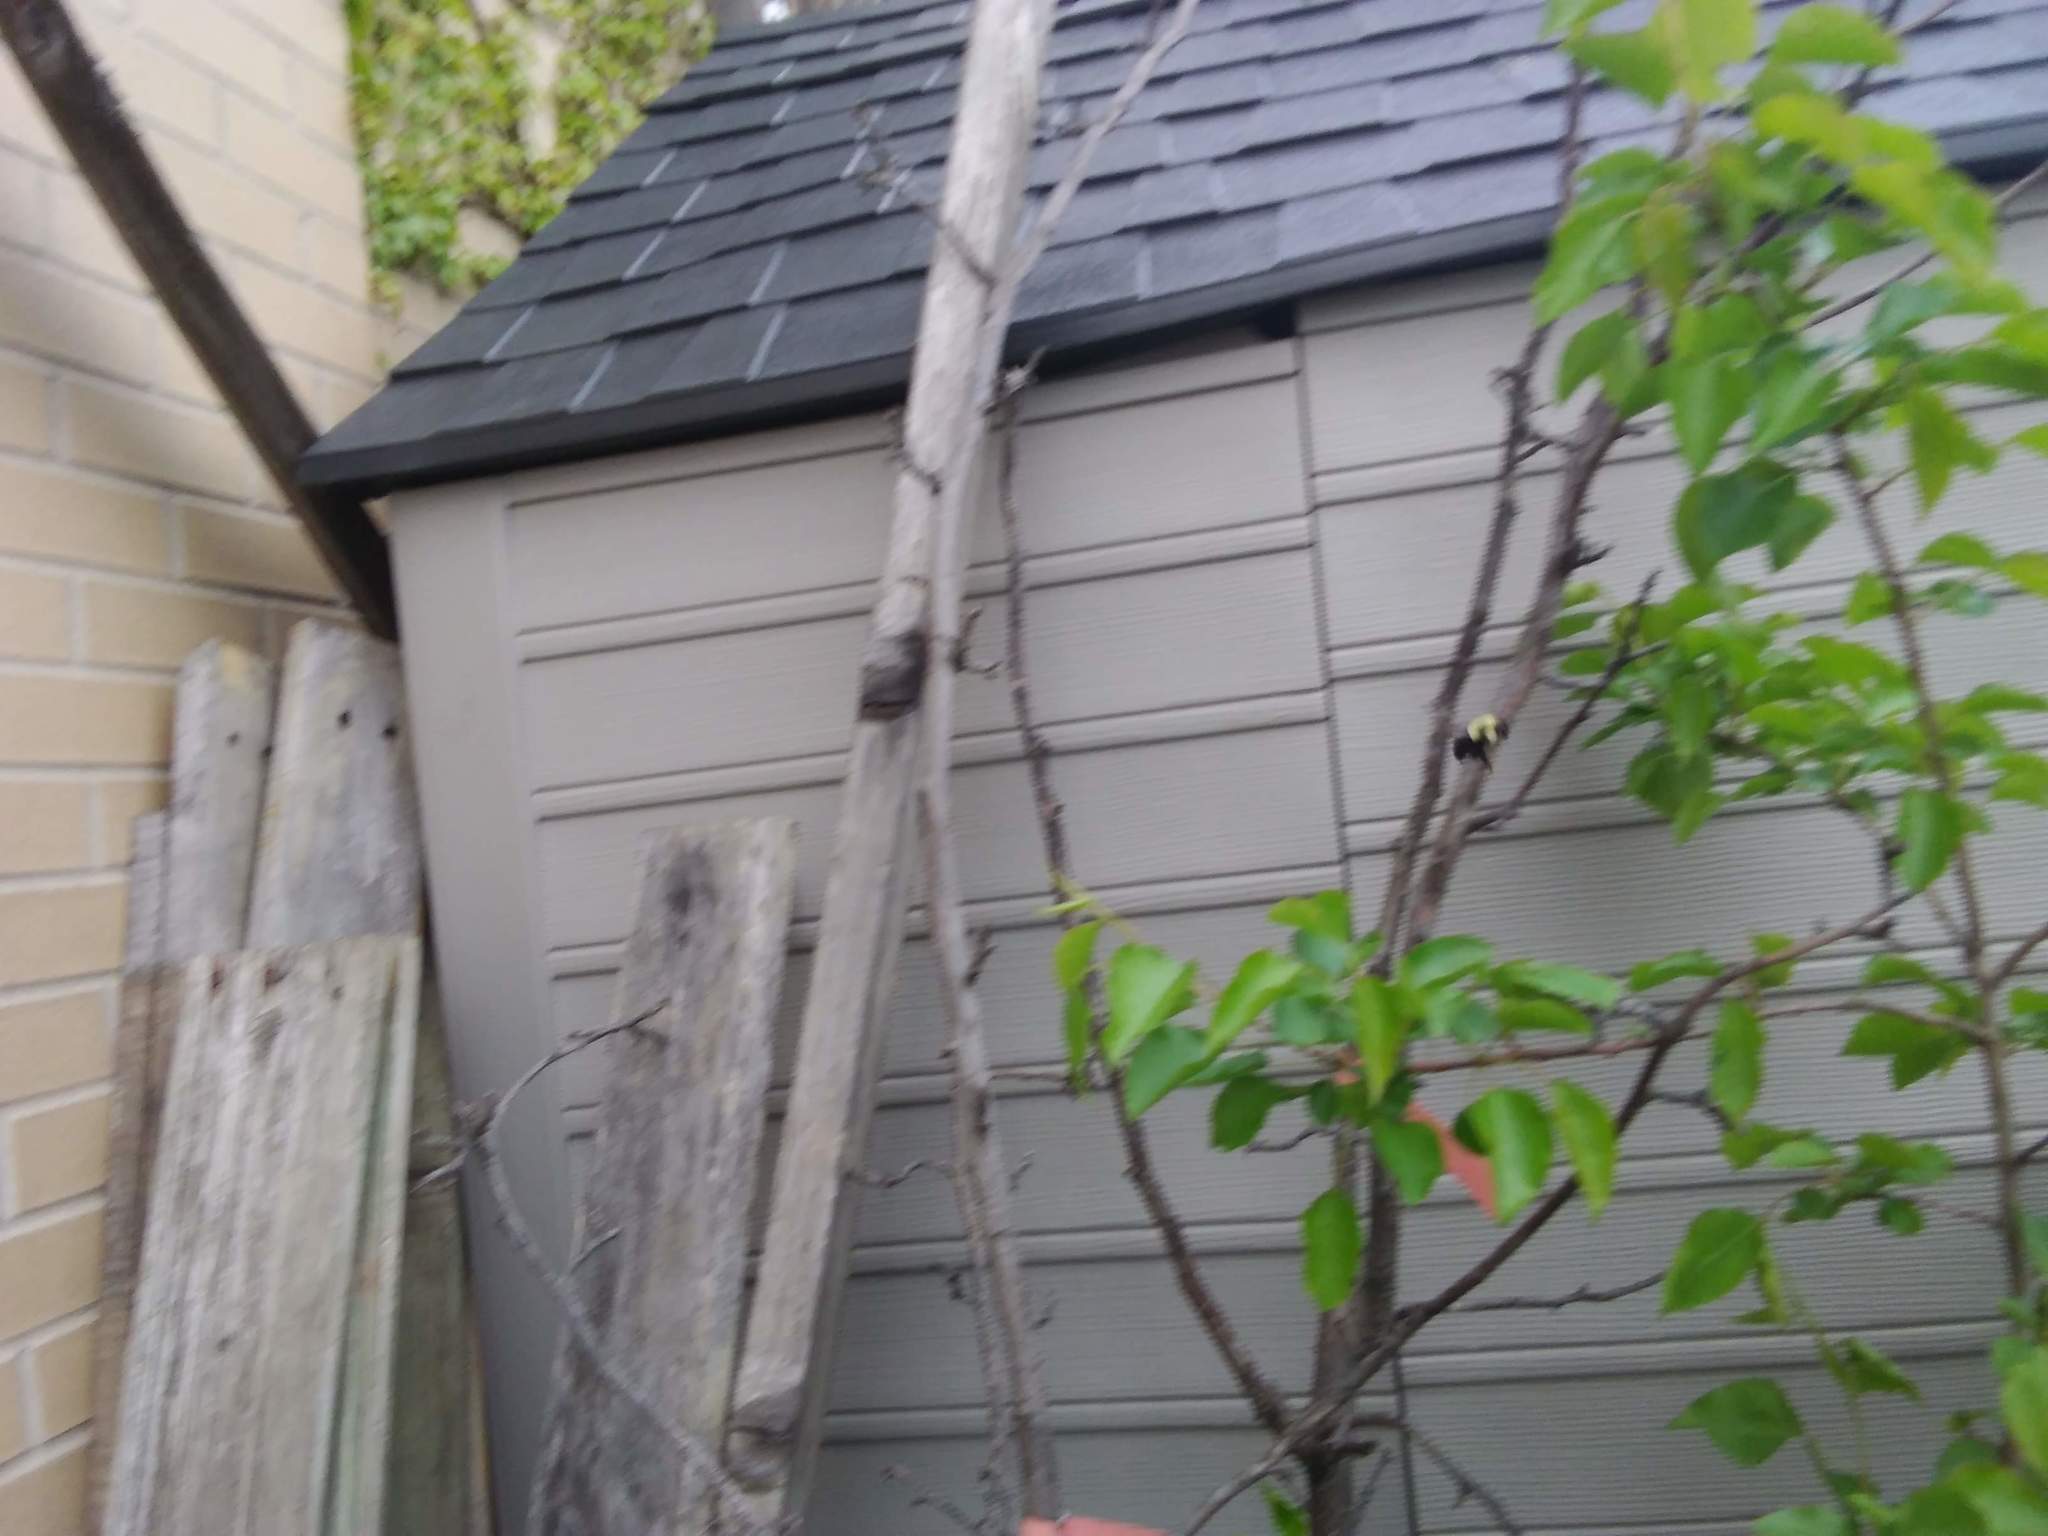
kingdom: Animalia
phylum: Arthropoda
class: Insecta
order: Hymenoptera
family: Apidae
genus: Bombus
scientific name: Bombus impatiens
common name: Common eastern bumble bee
